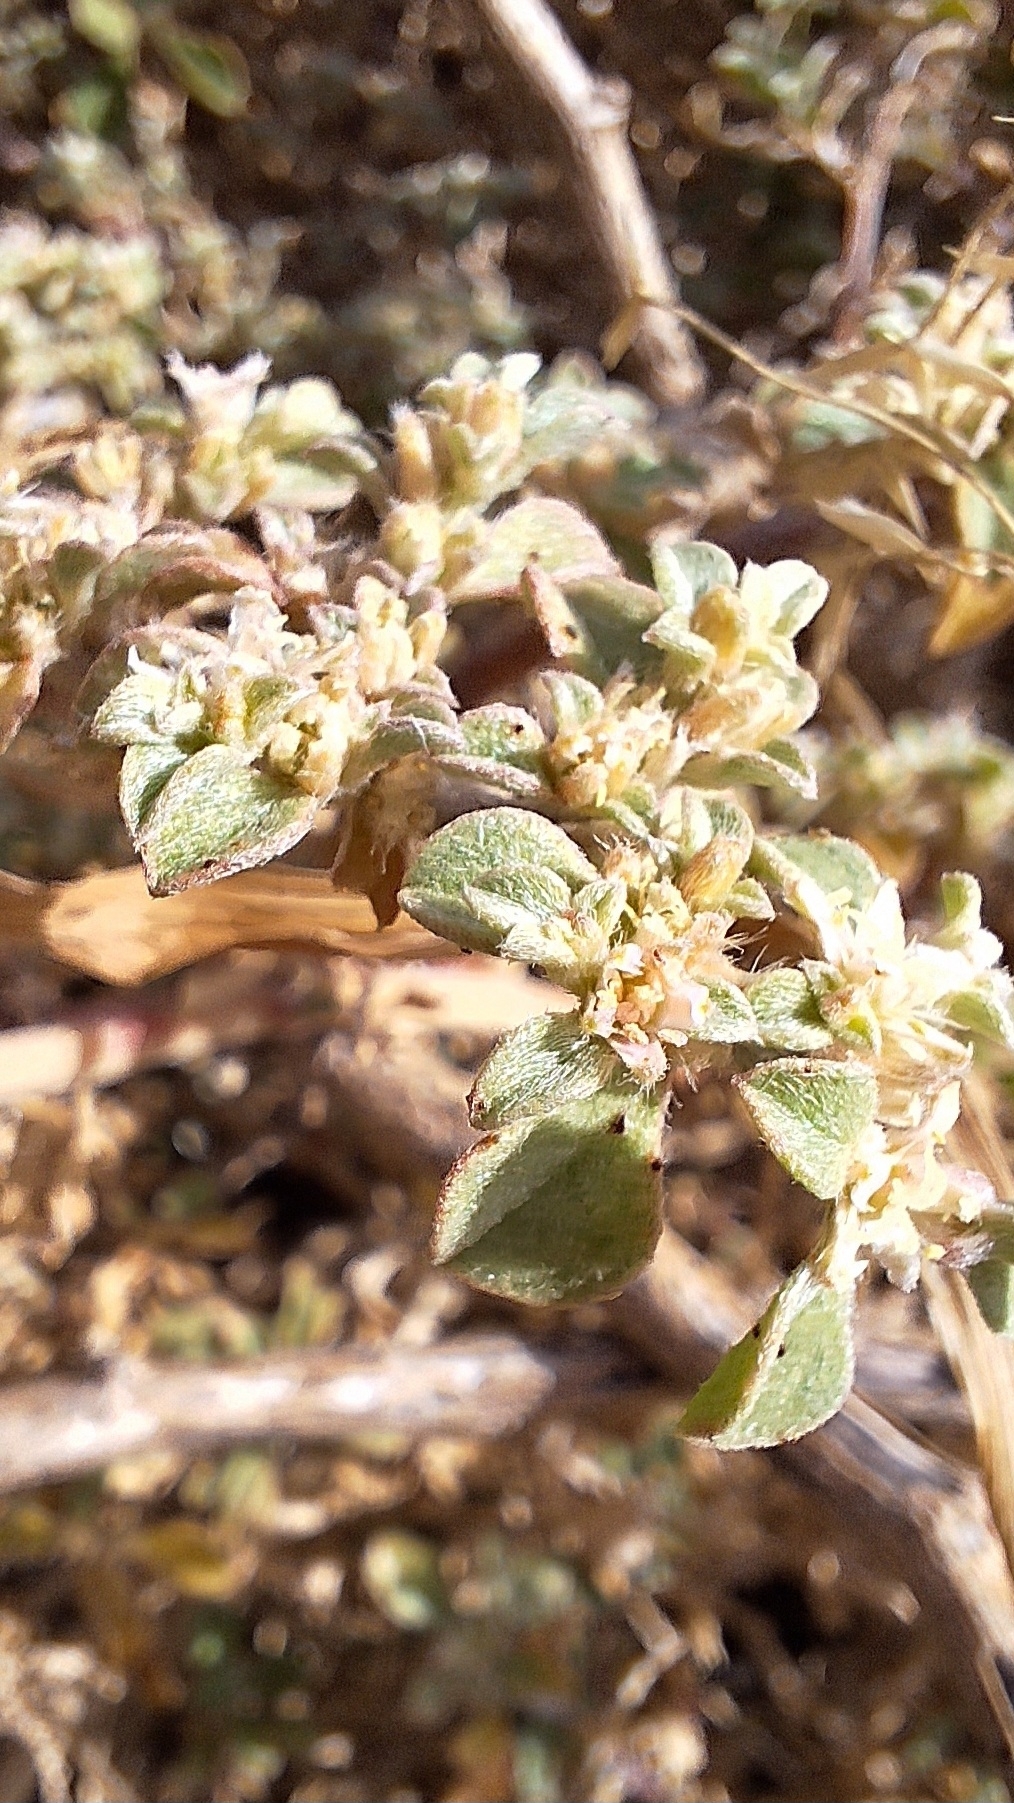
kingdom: Plantae
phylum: Tracheophyta
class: Magnoliopsida
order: Caryophyllales
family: Aizoaceae
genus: Aizoon
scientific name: Aizoon pubescens
